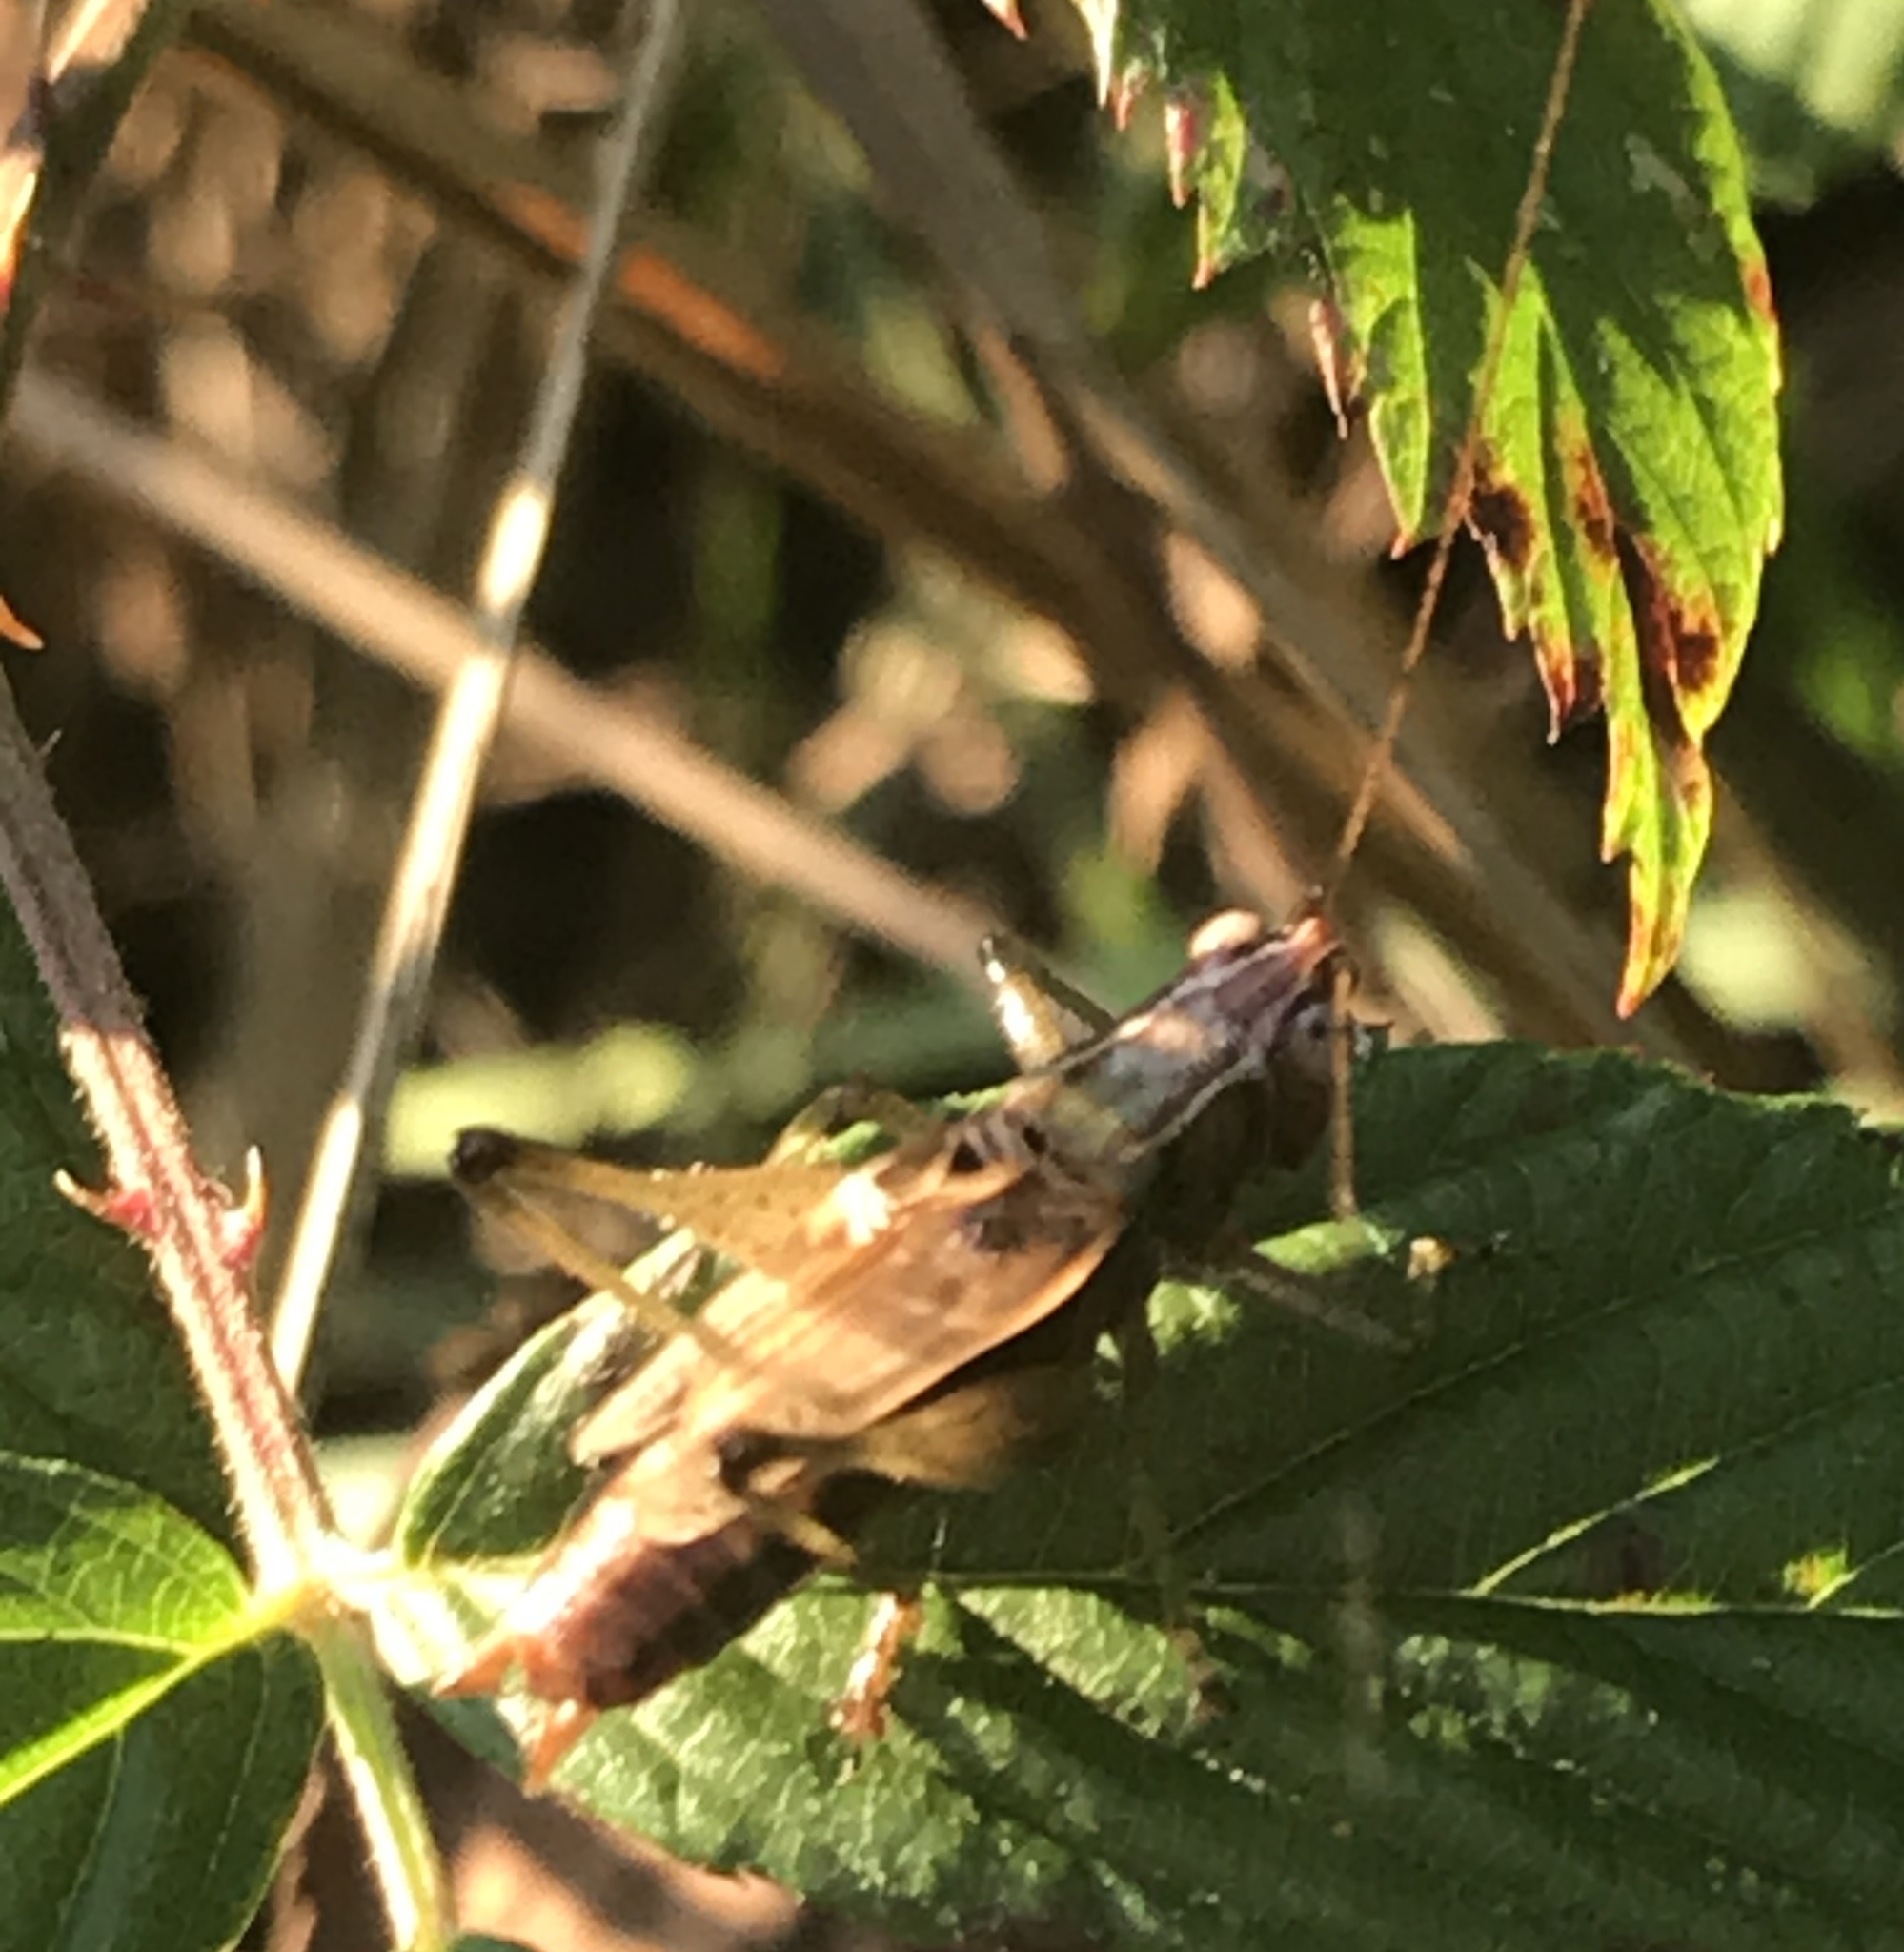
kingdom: Animalia
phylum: Arthropoda
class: Insecta
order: Orthoptera
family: Tettigoniidae
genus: Conocephalus
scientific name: Conocephalus nemoralis
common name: Woodland meadow katydid
